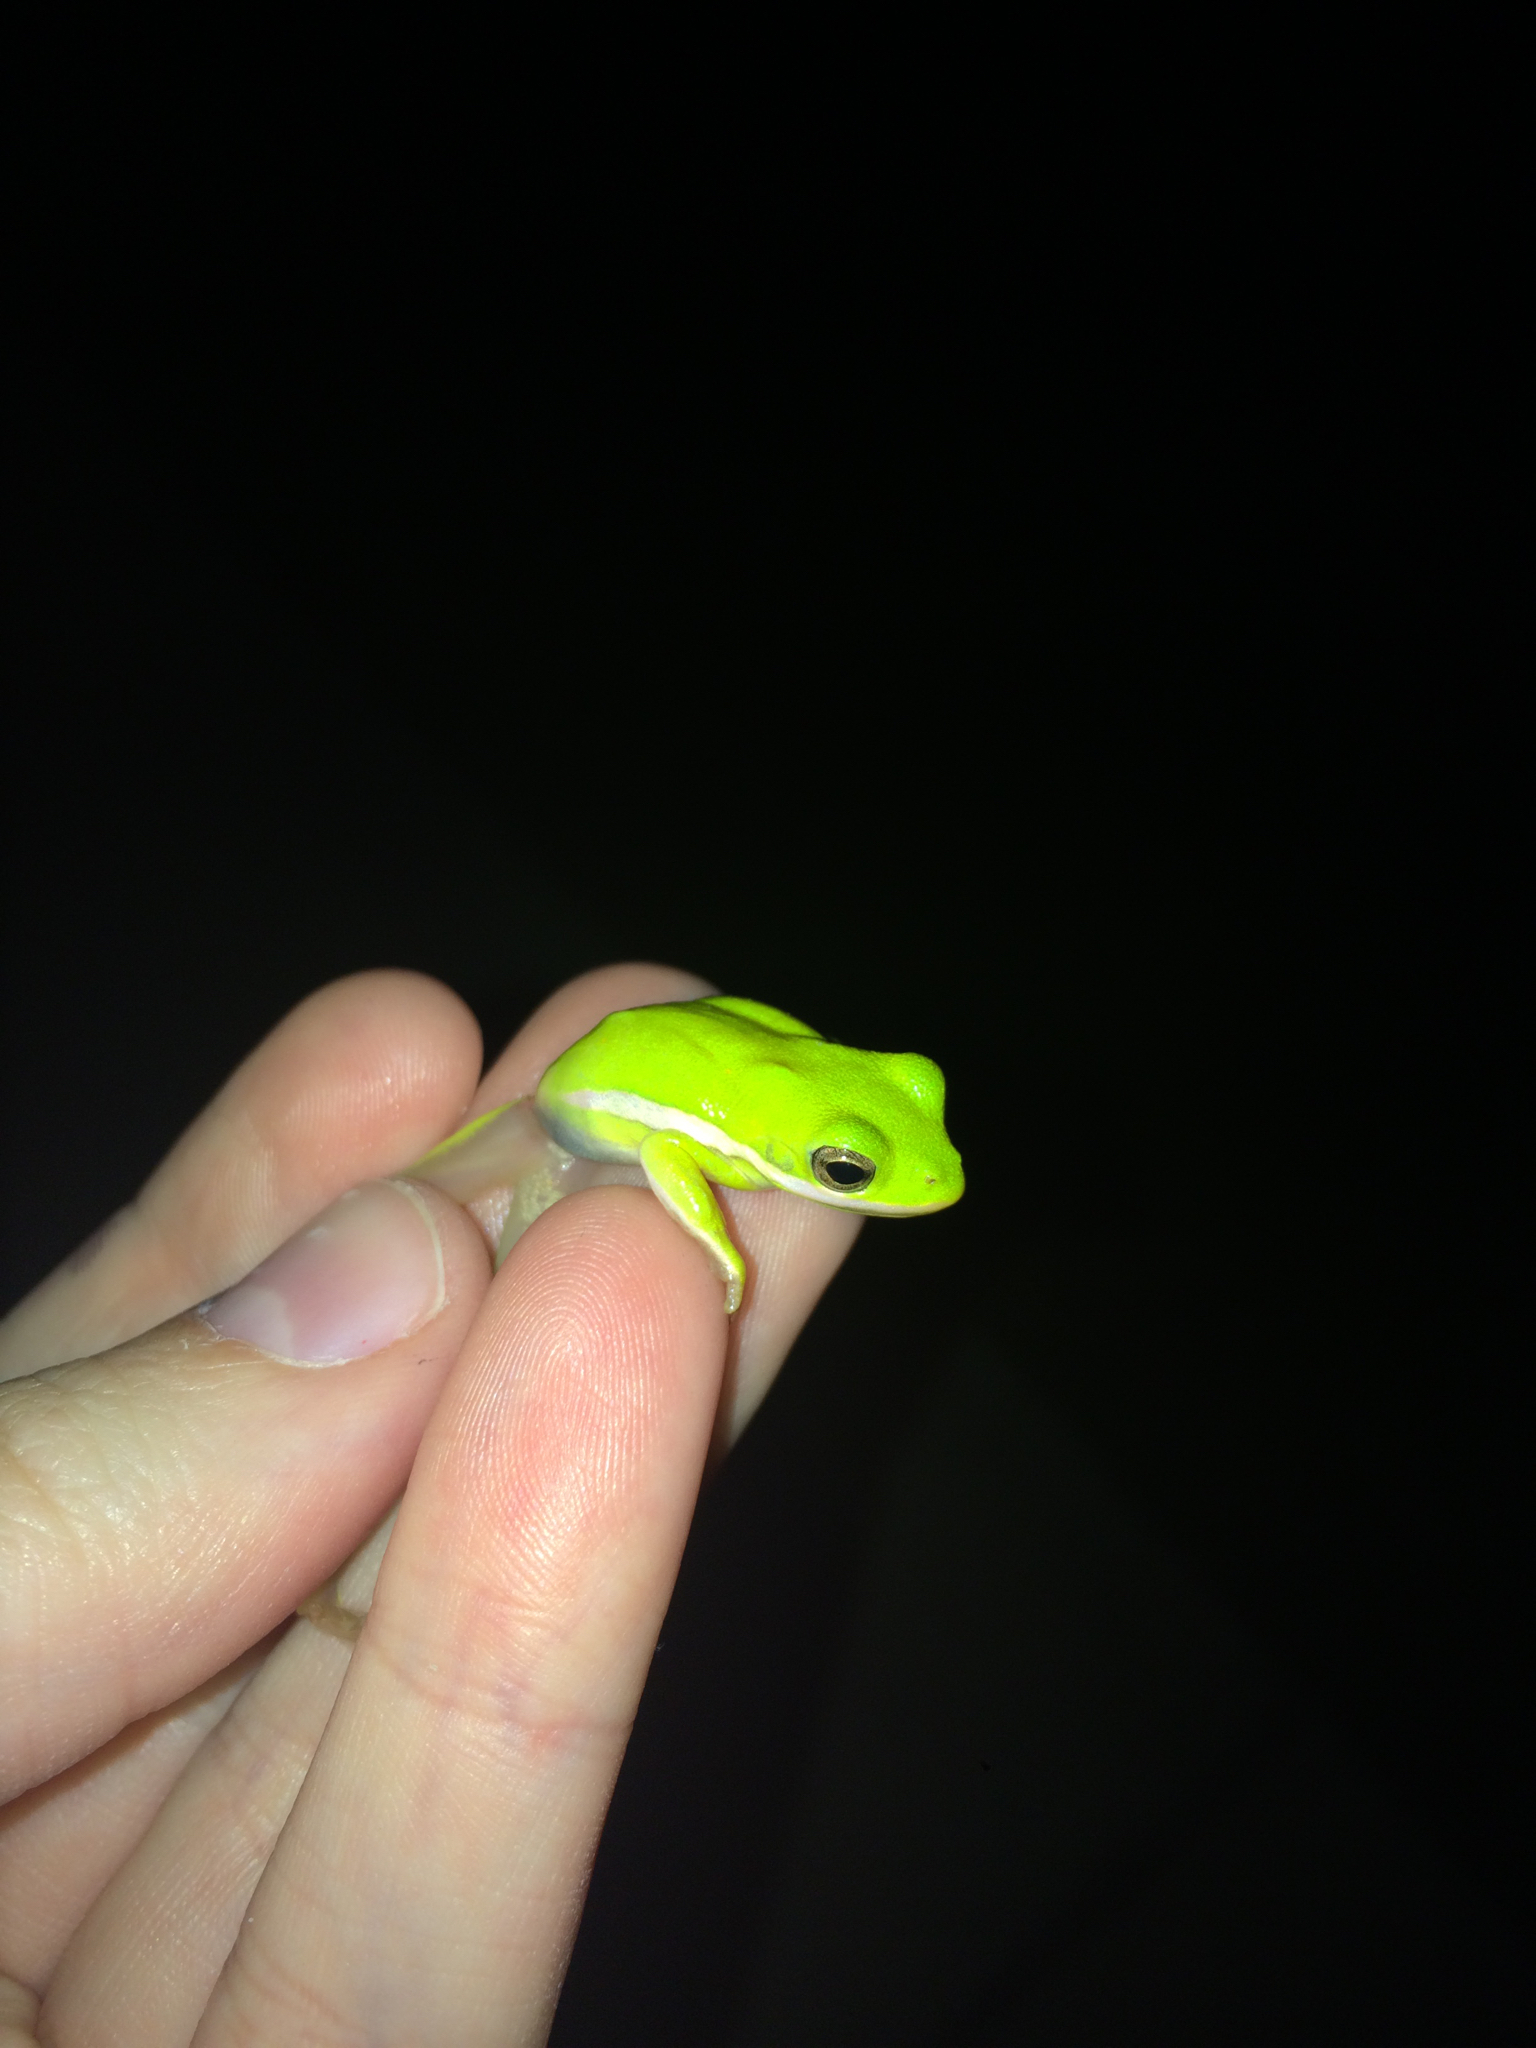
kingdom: Animalia
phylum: Chordata
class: Amphibia
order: Anura
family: Hylidae
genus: Dryophytes
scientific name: Dryophytes cinereus
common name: Green treefrog
